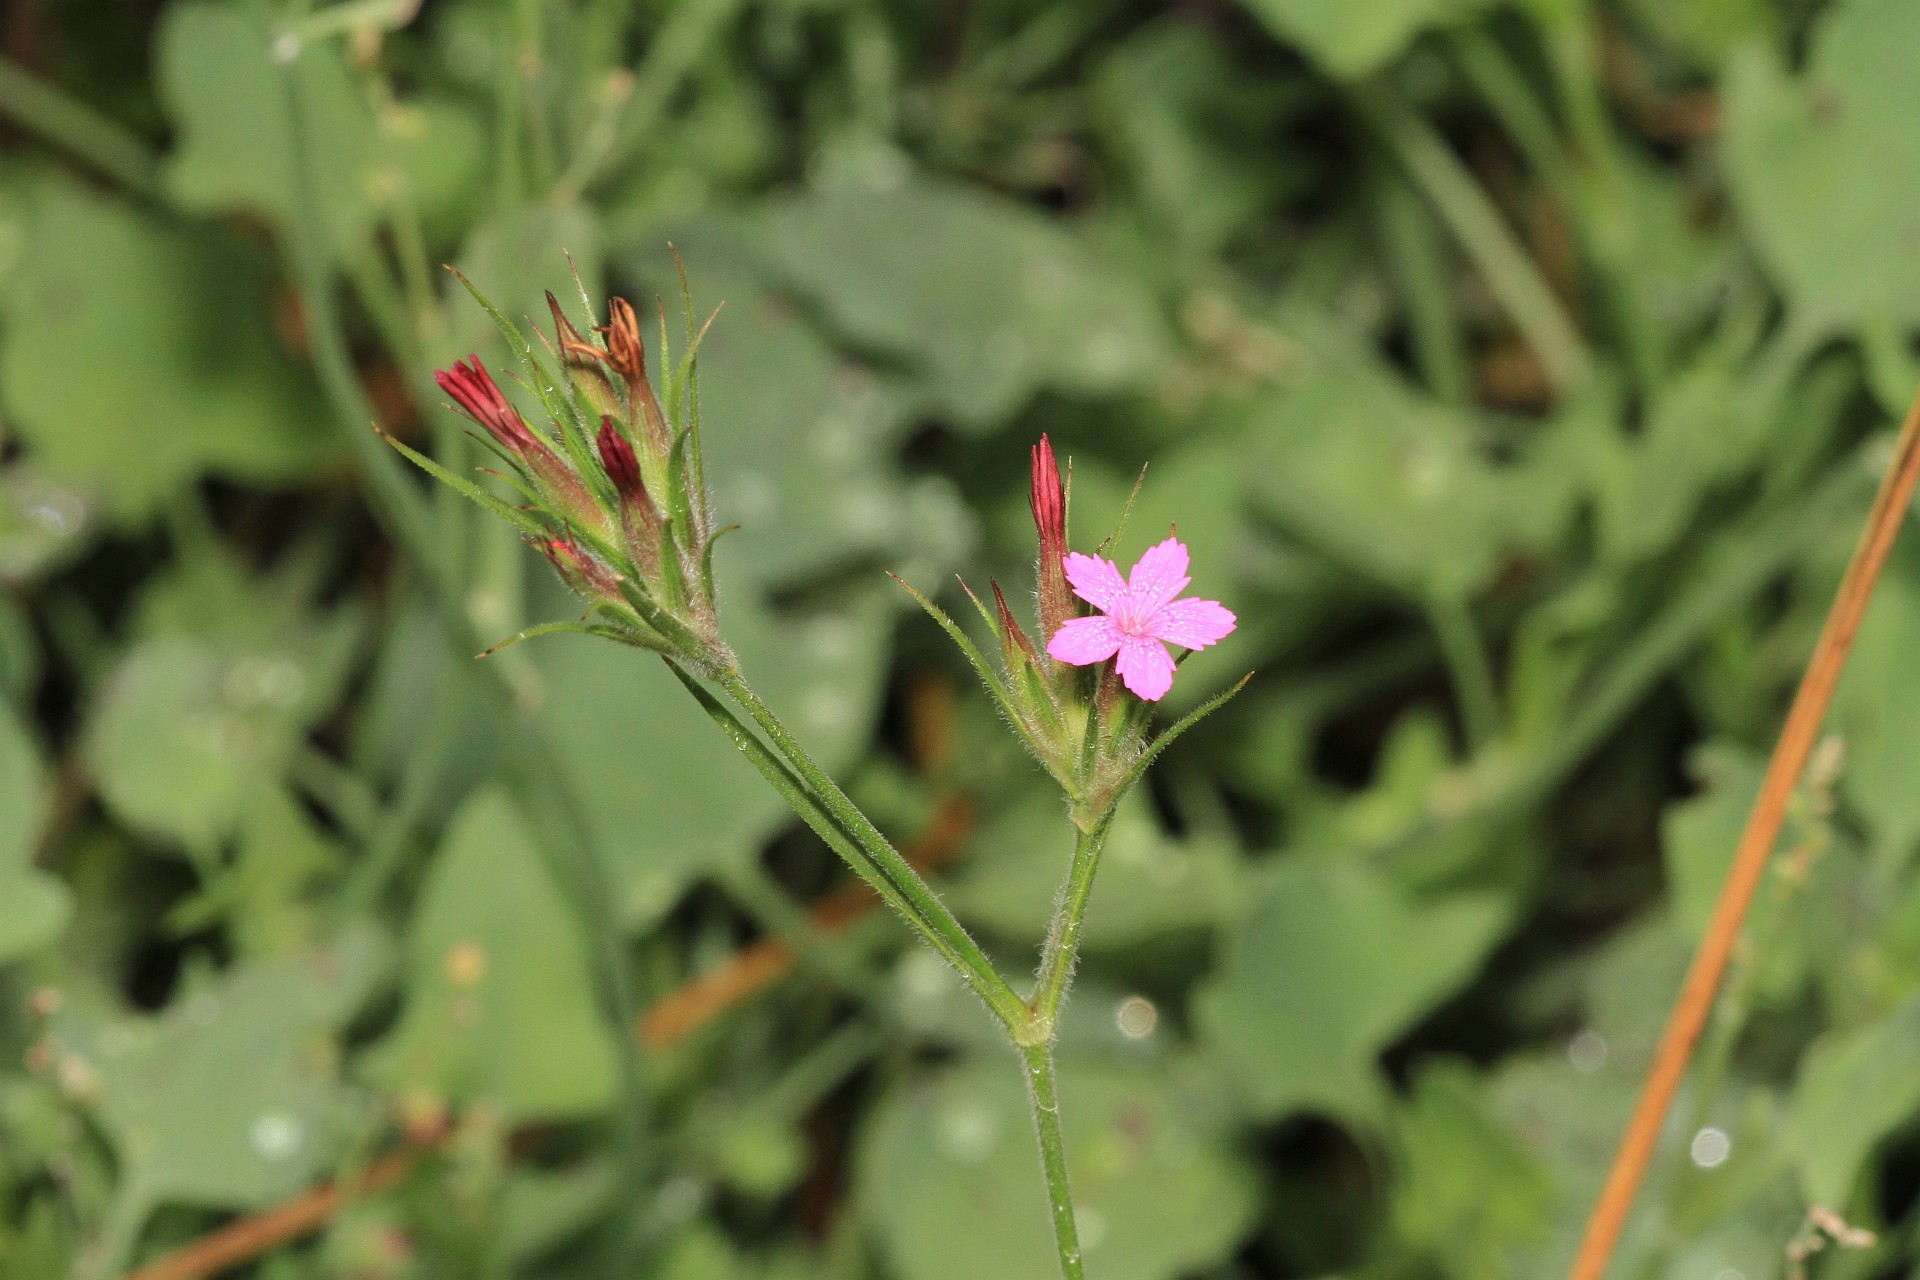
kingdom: Plantae
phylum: Tracheophyta
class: Magnoliopsida
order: Caryophyllales
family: Caryophyllaceae
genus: Dianthus
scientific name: Dianthus armeria
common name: Deptford pink
